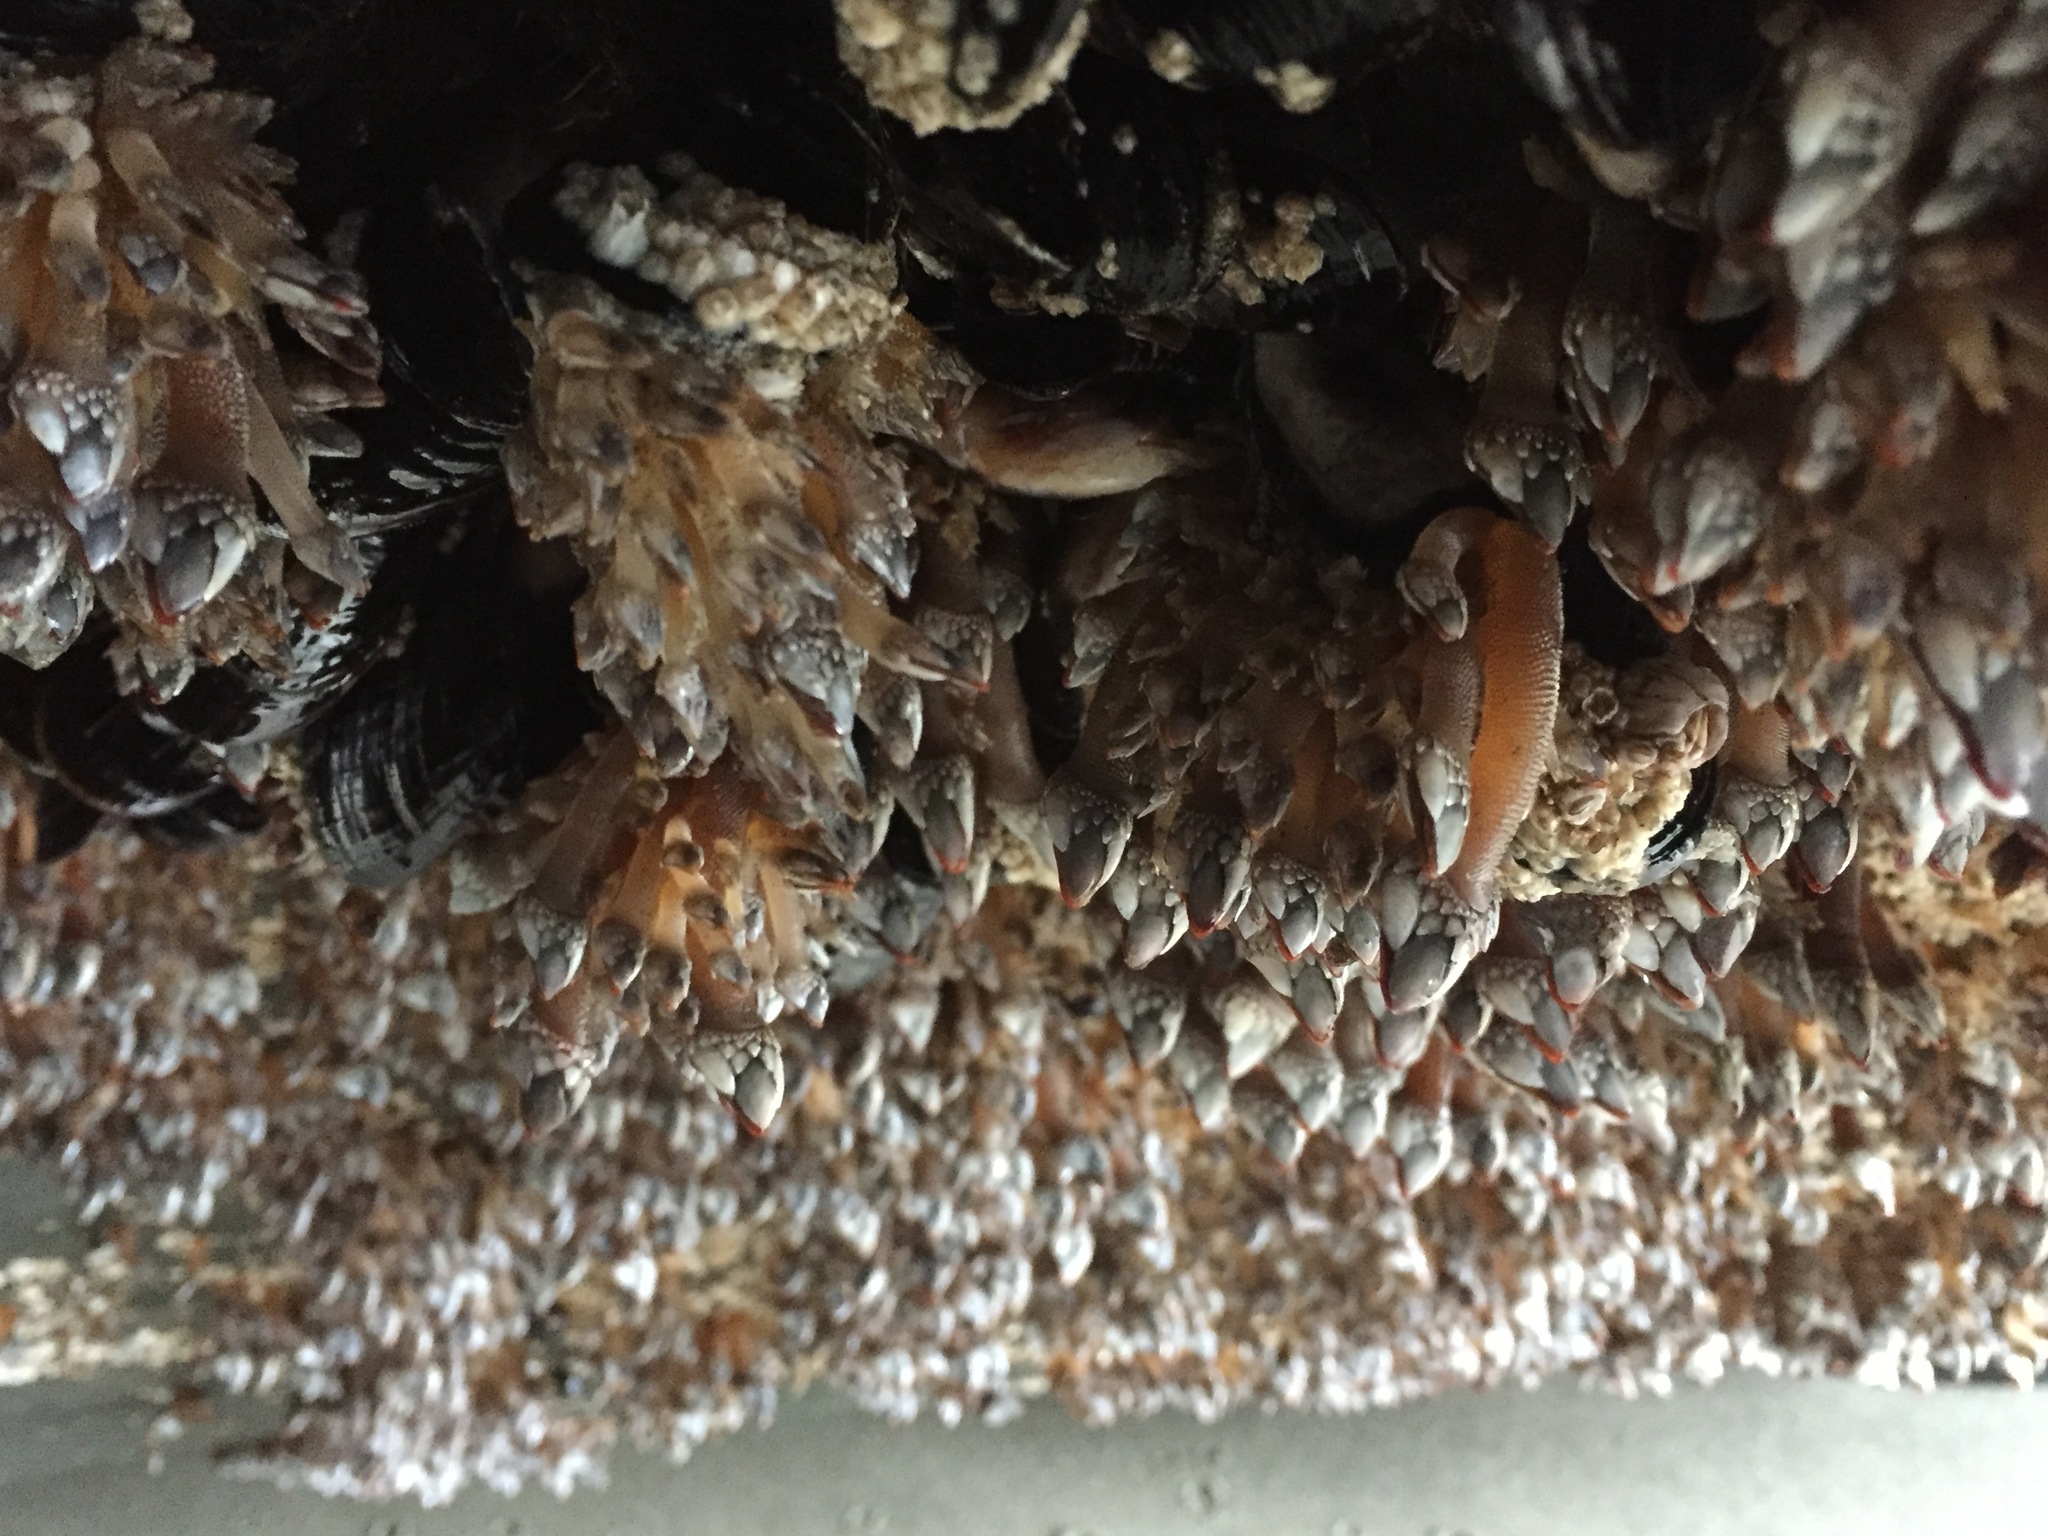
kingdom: Animalia
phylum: Arthropoda
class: Maxillopoda
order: Pedunculata
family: Pollicipedidae
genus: Pollicipes
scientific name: Pollicipes polymerus
